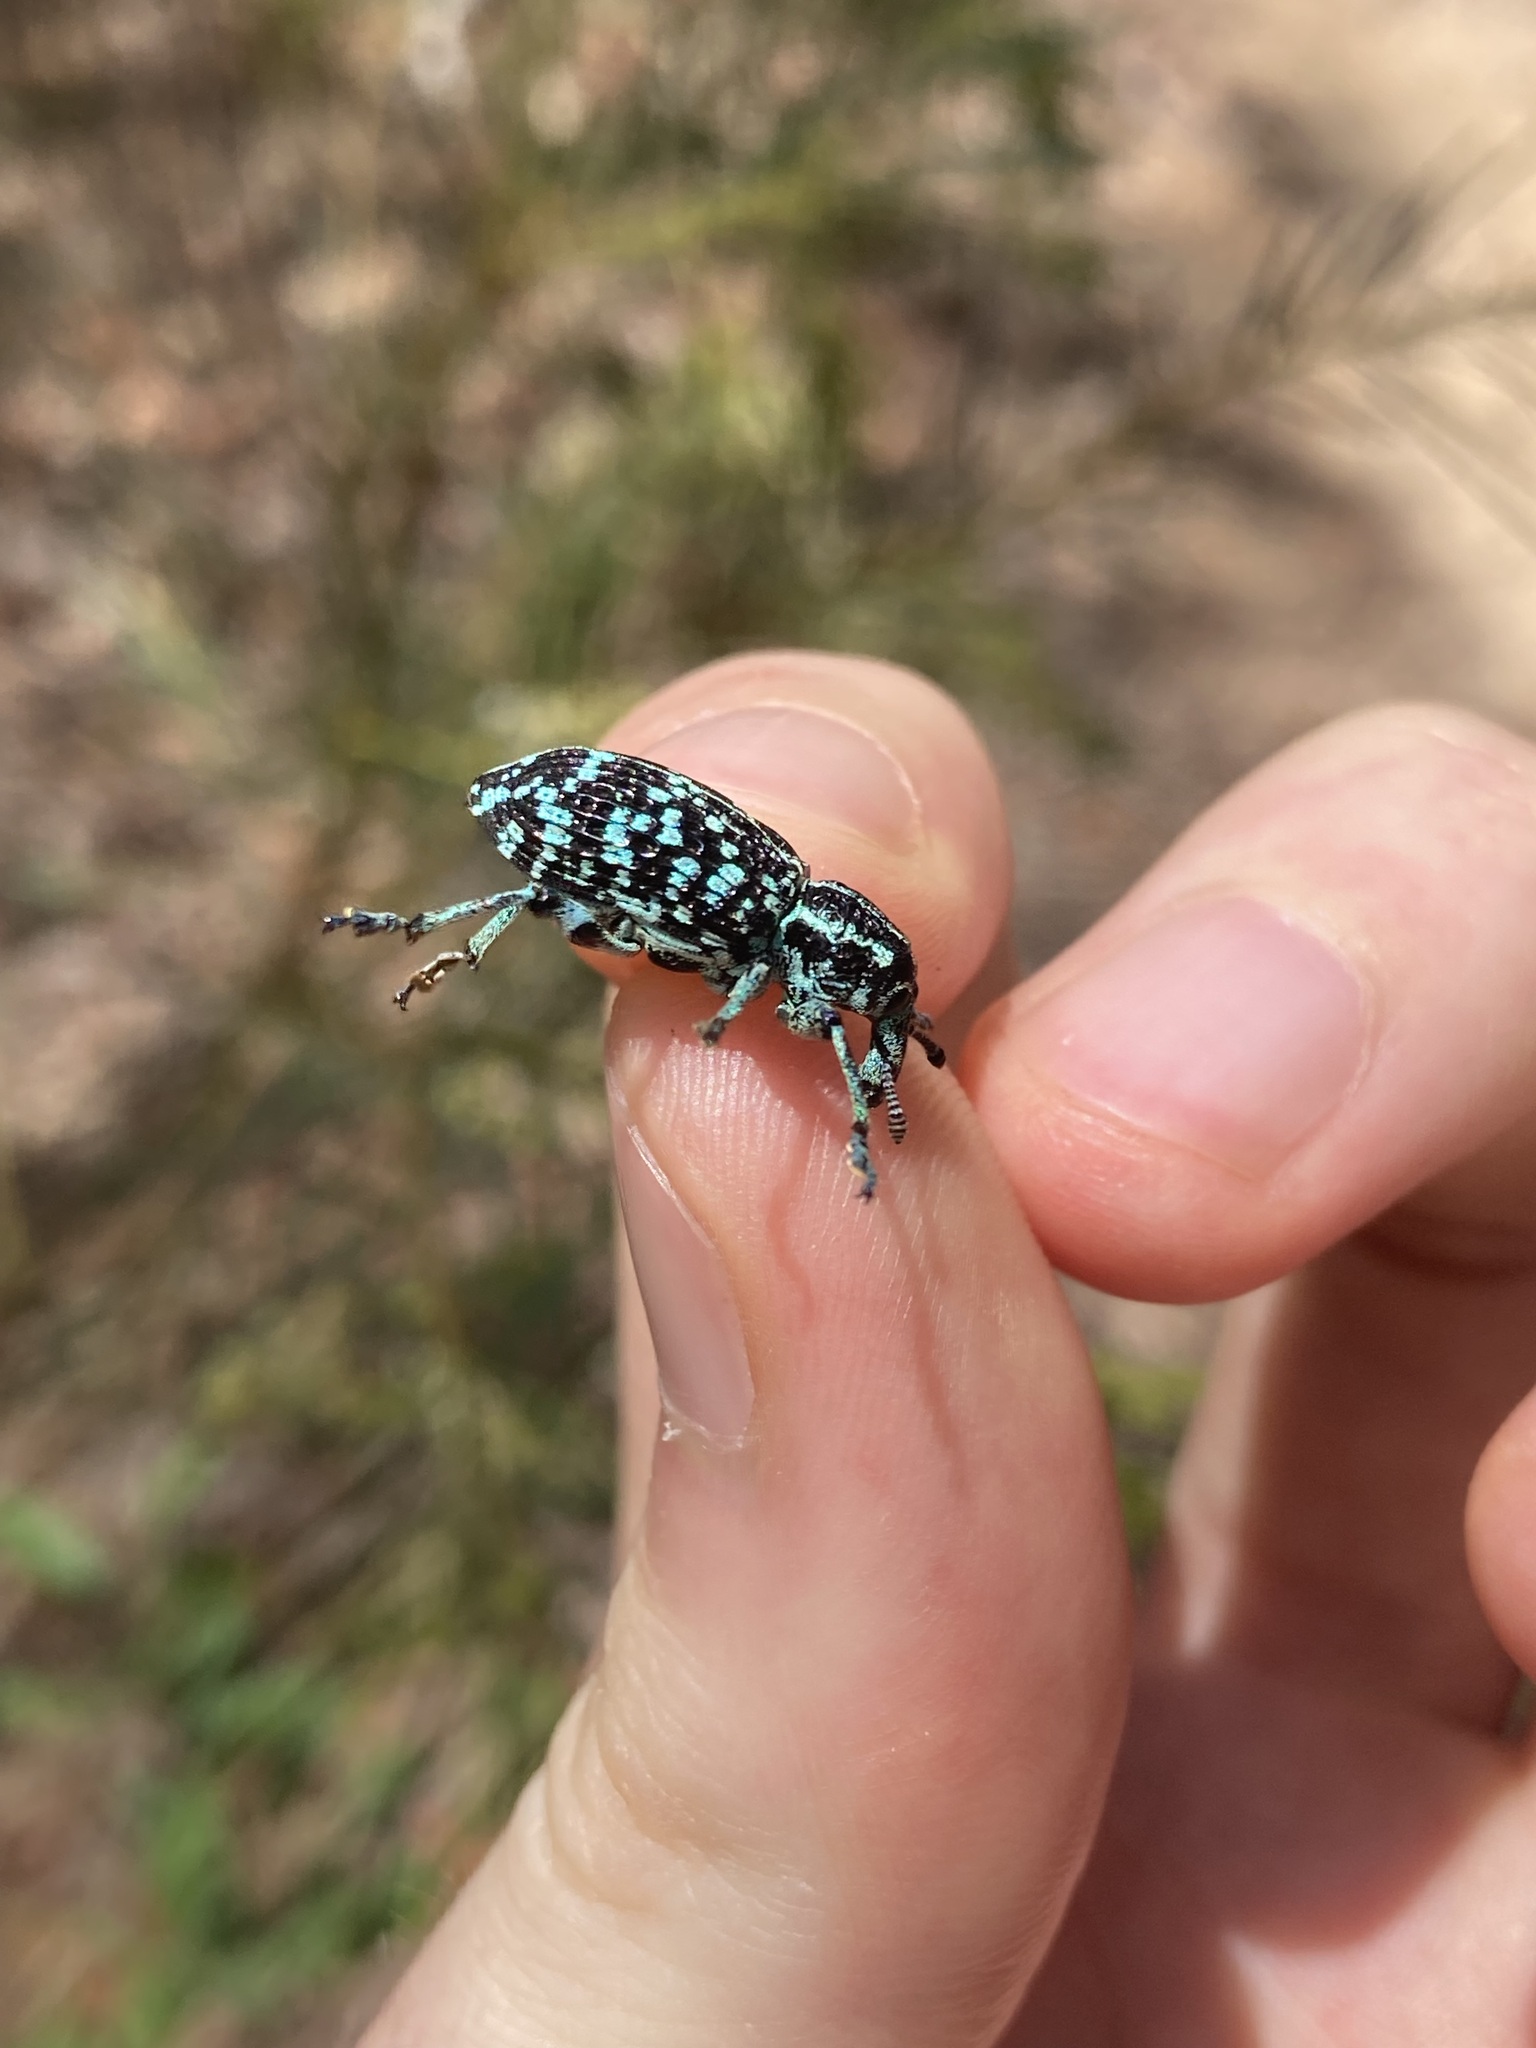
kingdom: Animalia
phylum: Arthropoda
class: Insecta
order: Coleoptera
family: Curculionidae
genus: Chrysolopus
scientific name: Chrysolopus spectabilis
